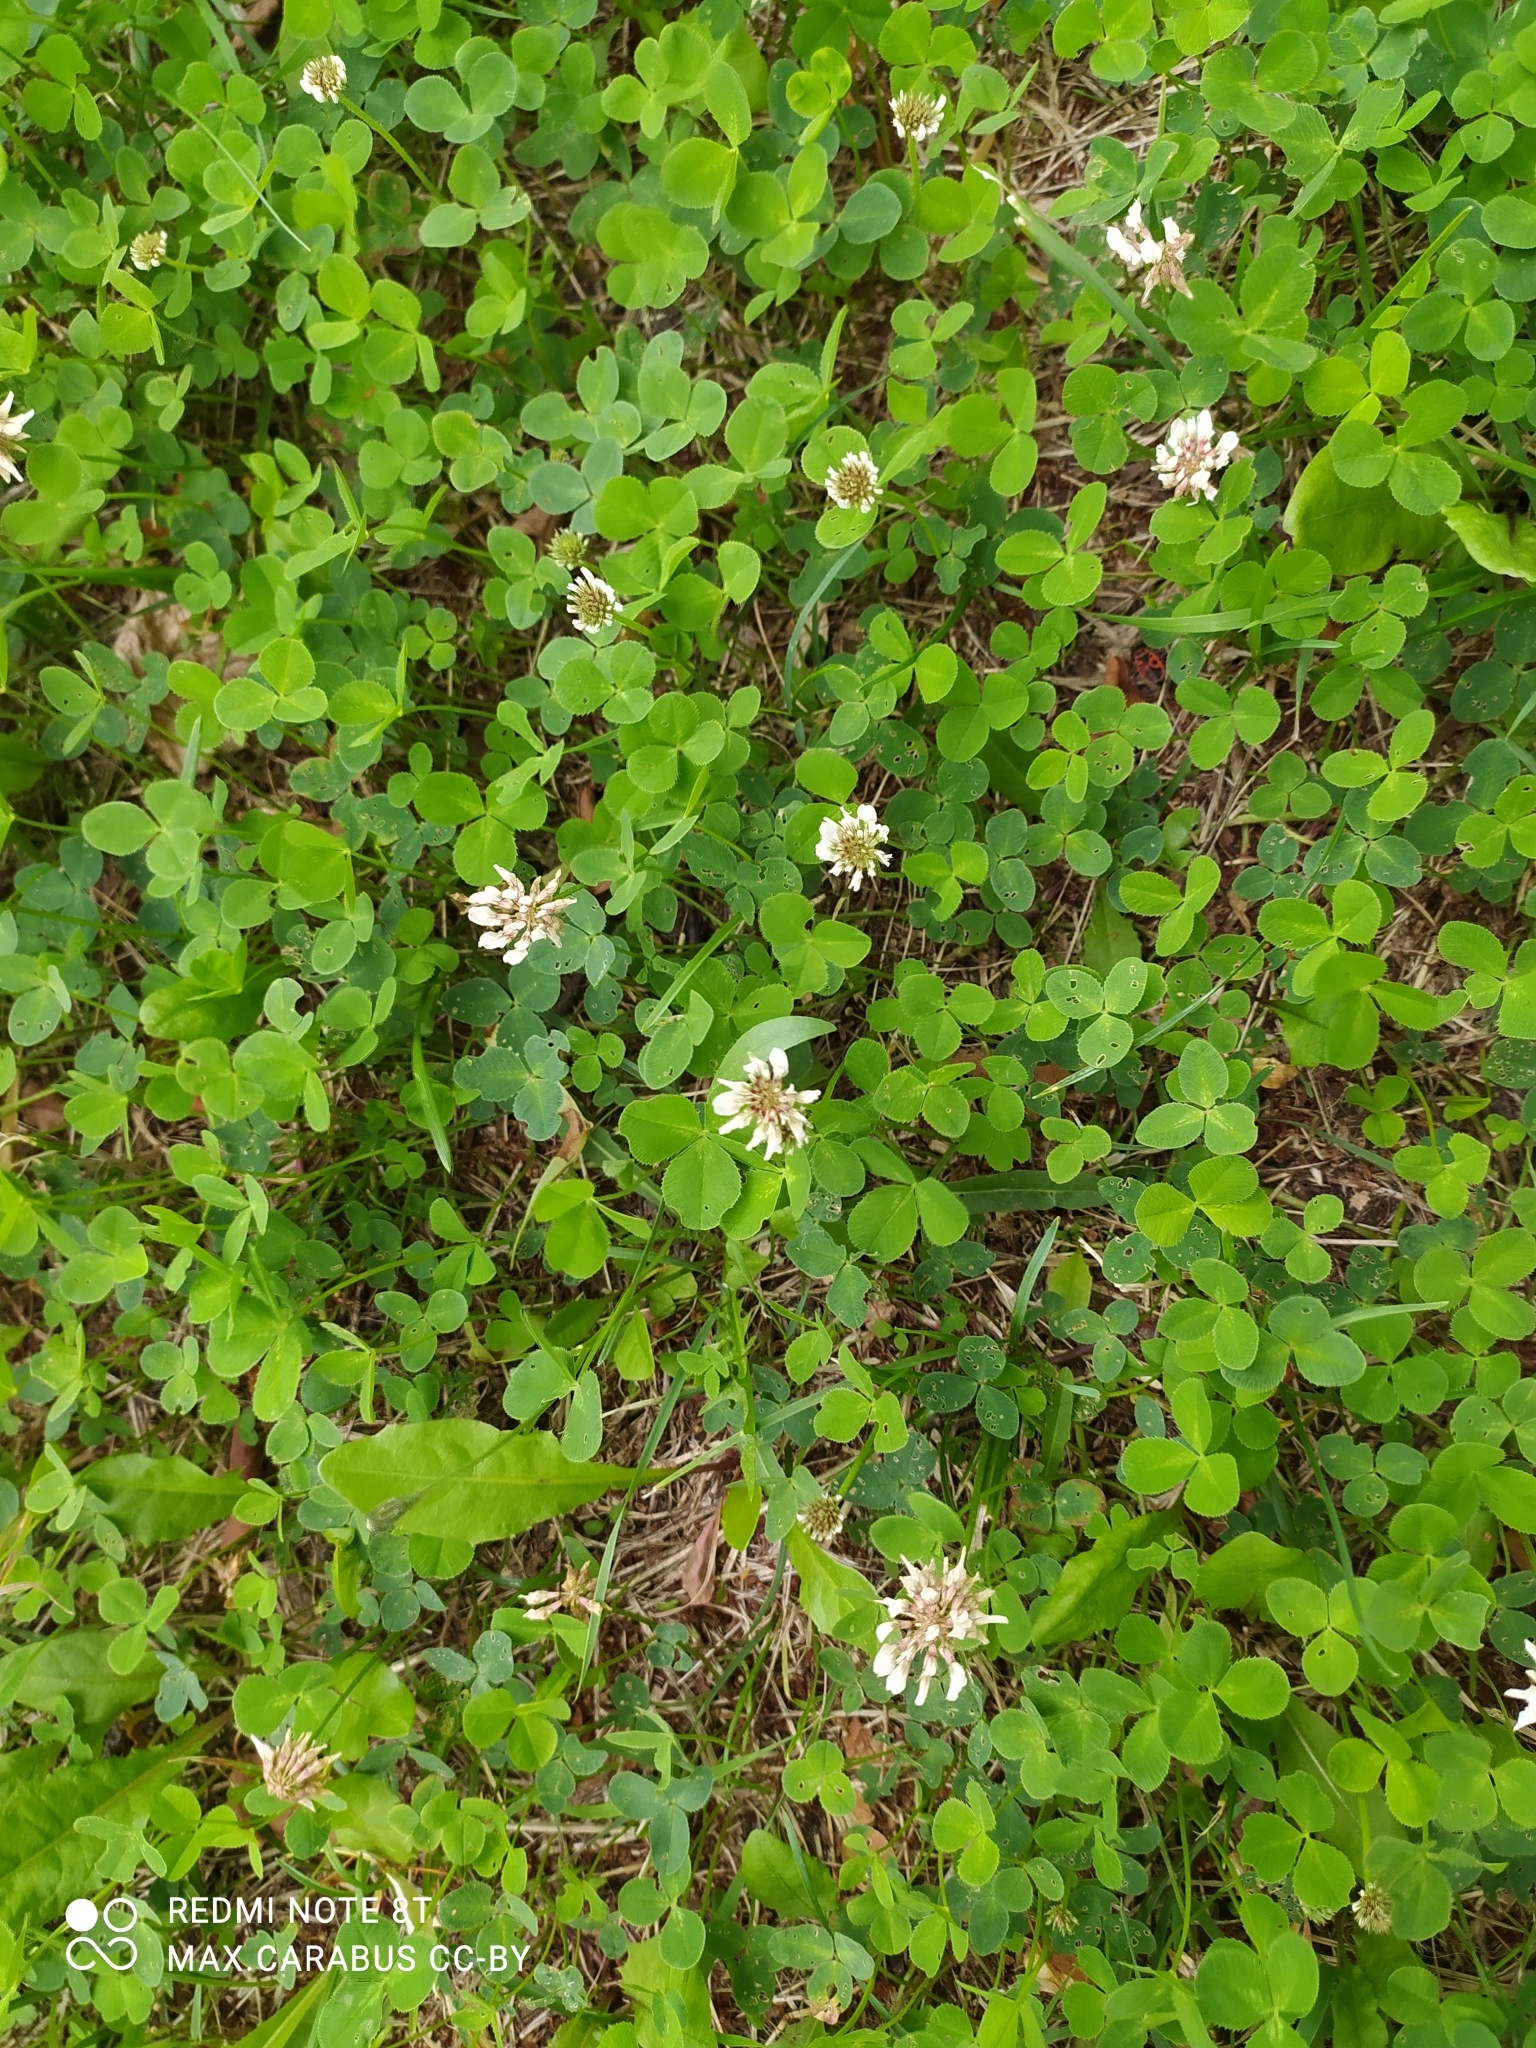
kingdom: Plantae
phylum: Tracheophyta
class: Magnoliopsida
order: Fabales
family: Fabaceae
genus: Trifolium
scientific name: Trifolium repens
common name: White clover
